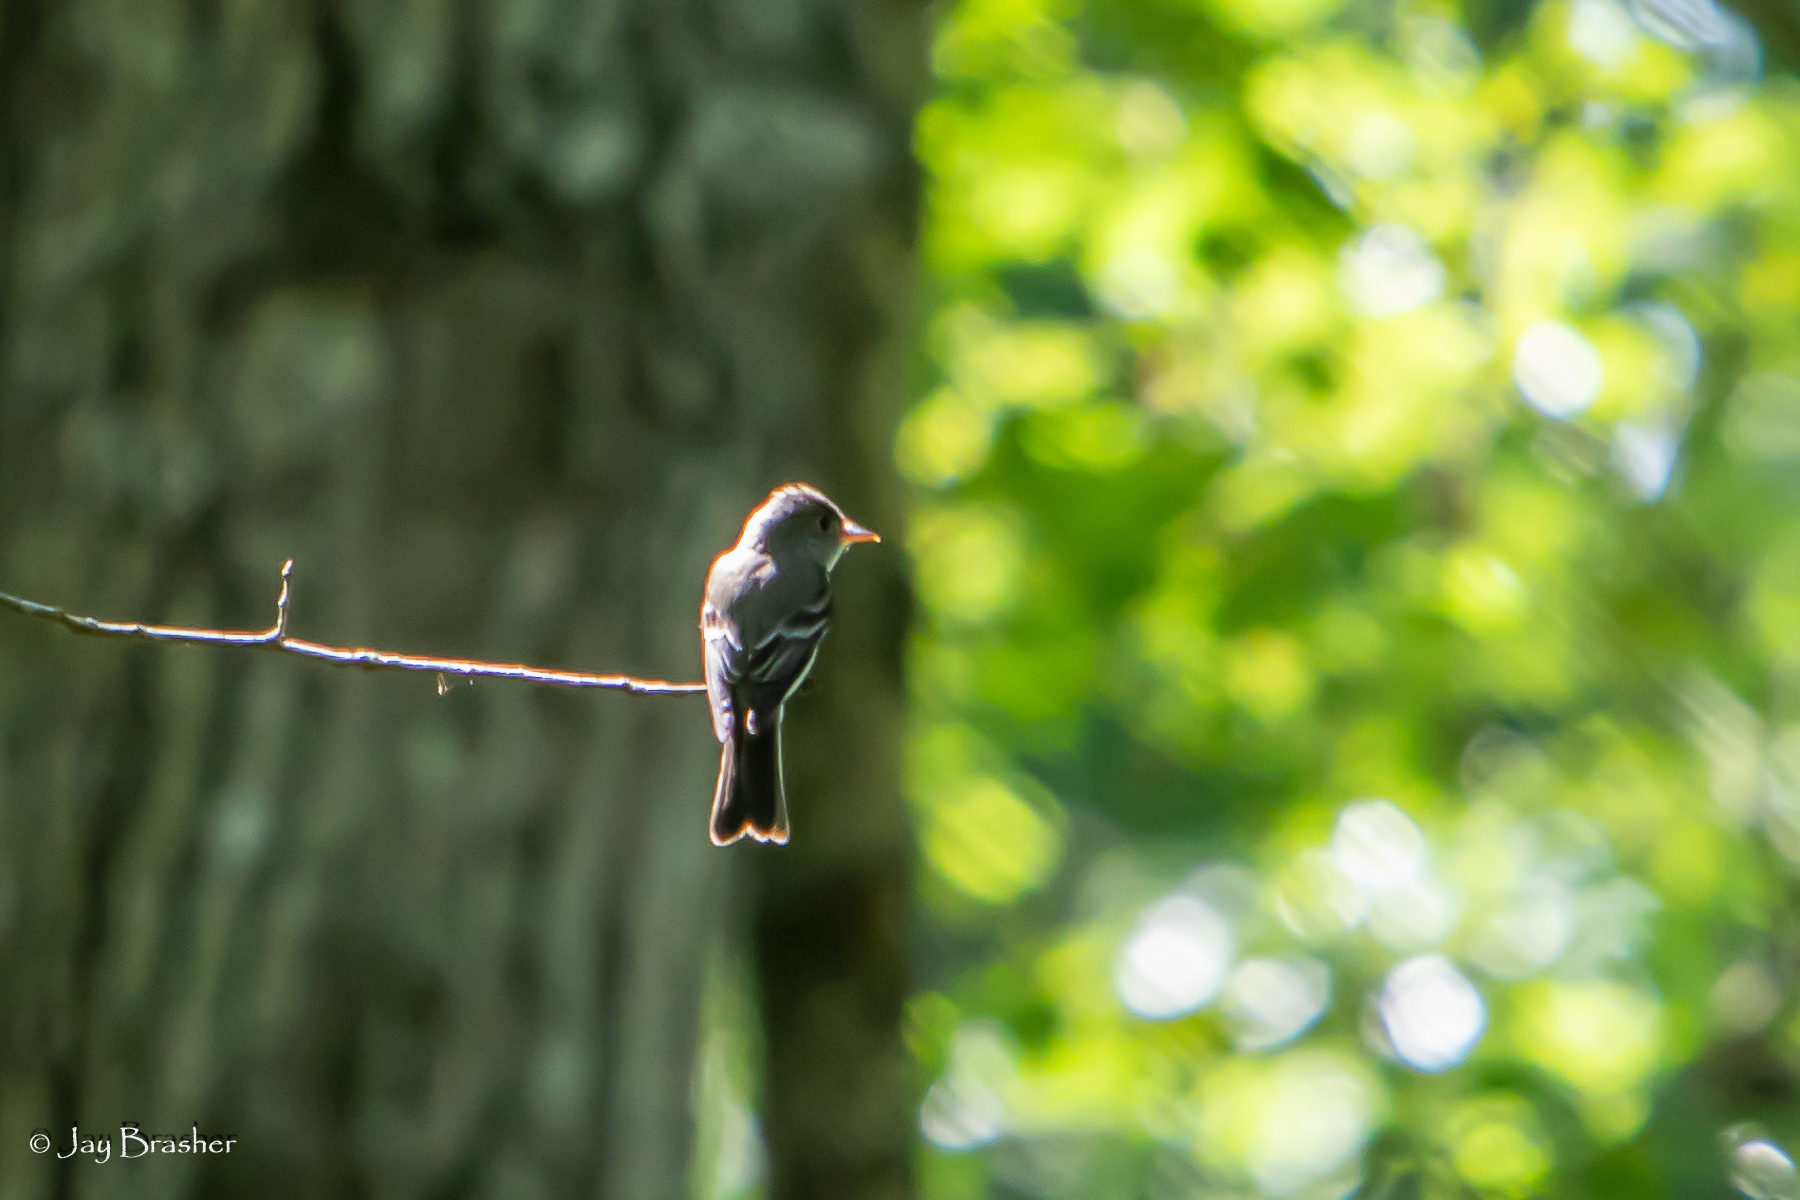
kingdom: Animalia
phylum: Chordata
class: Aves
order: Passeriformes
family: Tyrannidae
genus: Contopus
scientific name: Contopus virens
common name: Eastern wood-pewee
